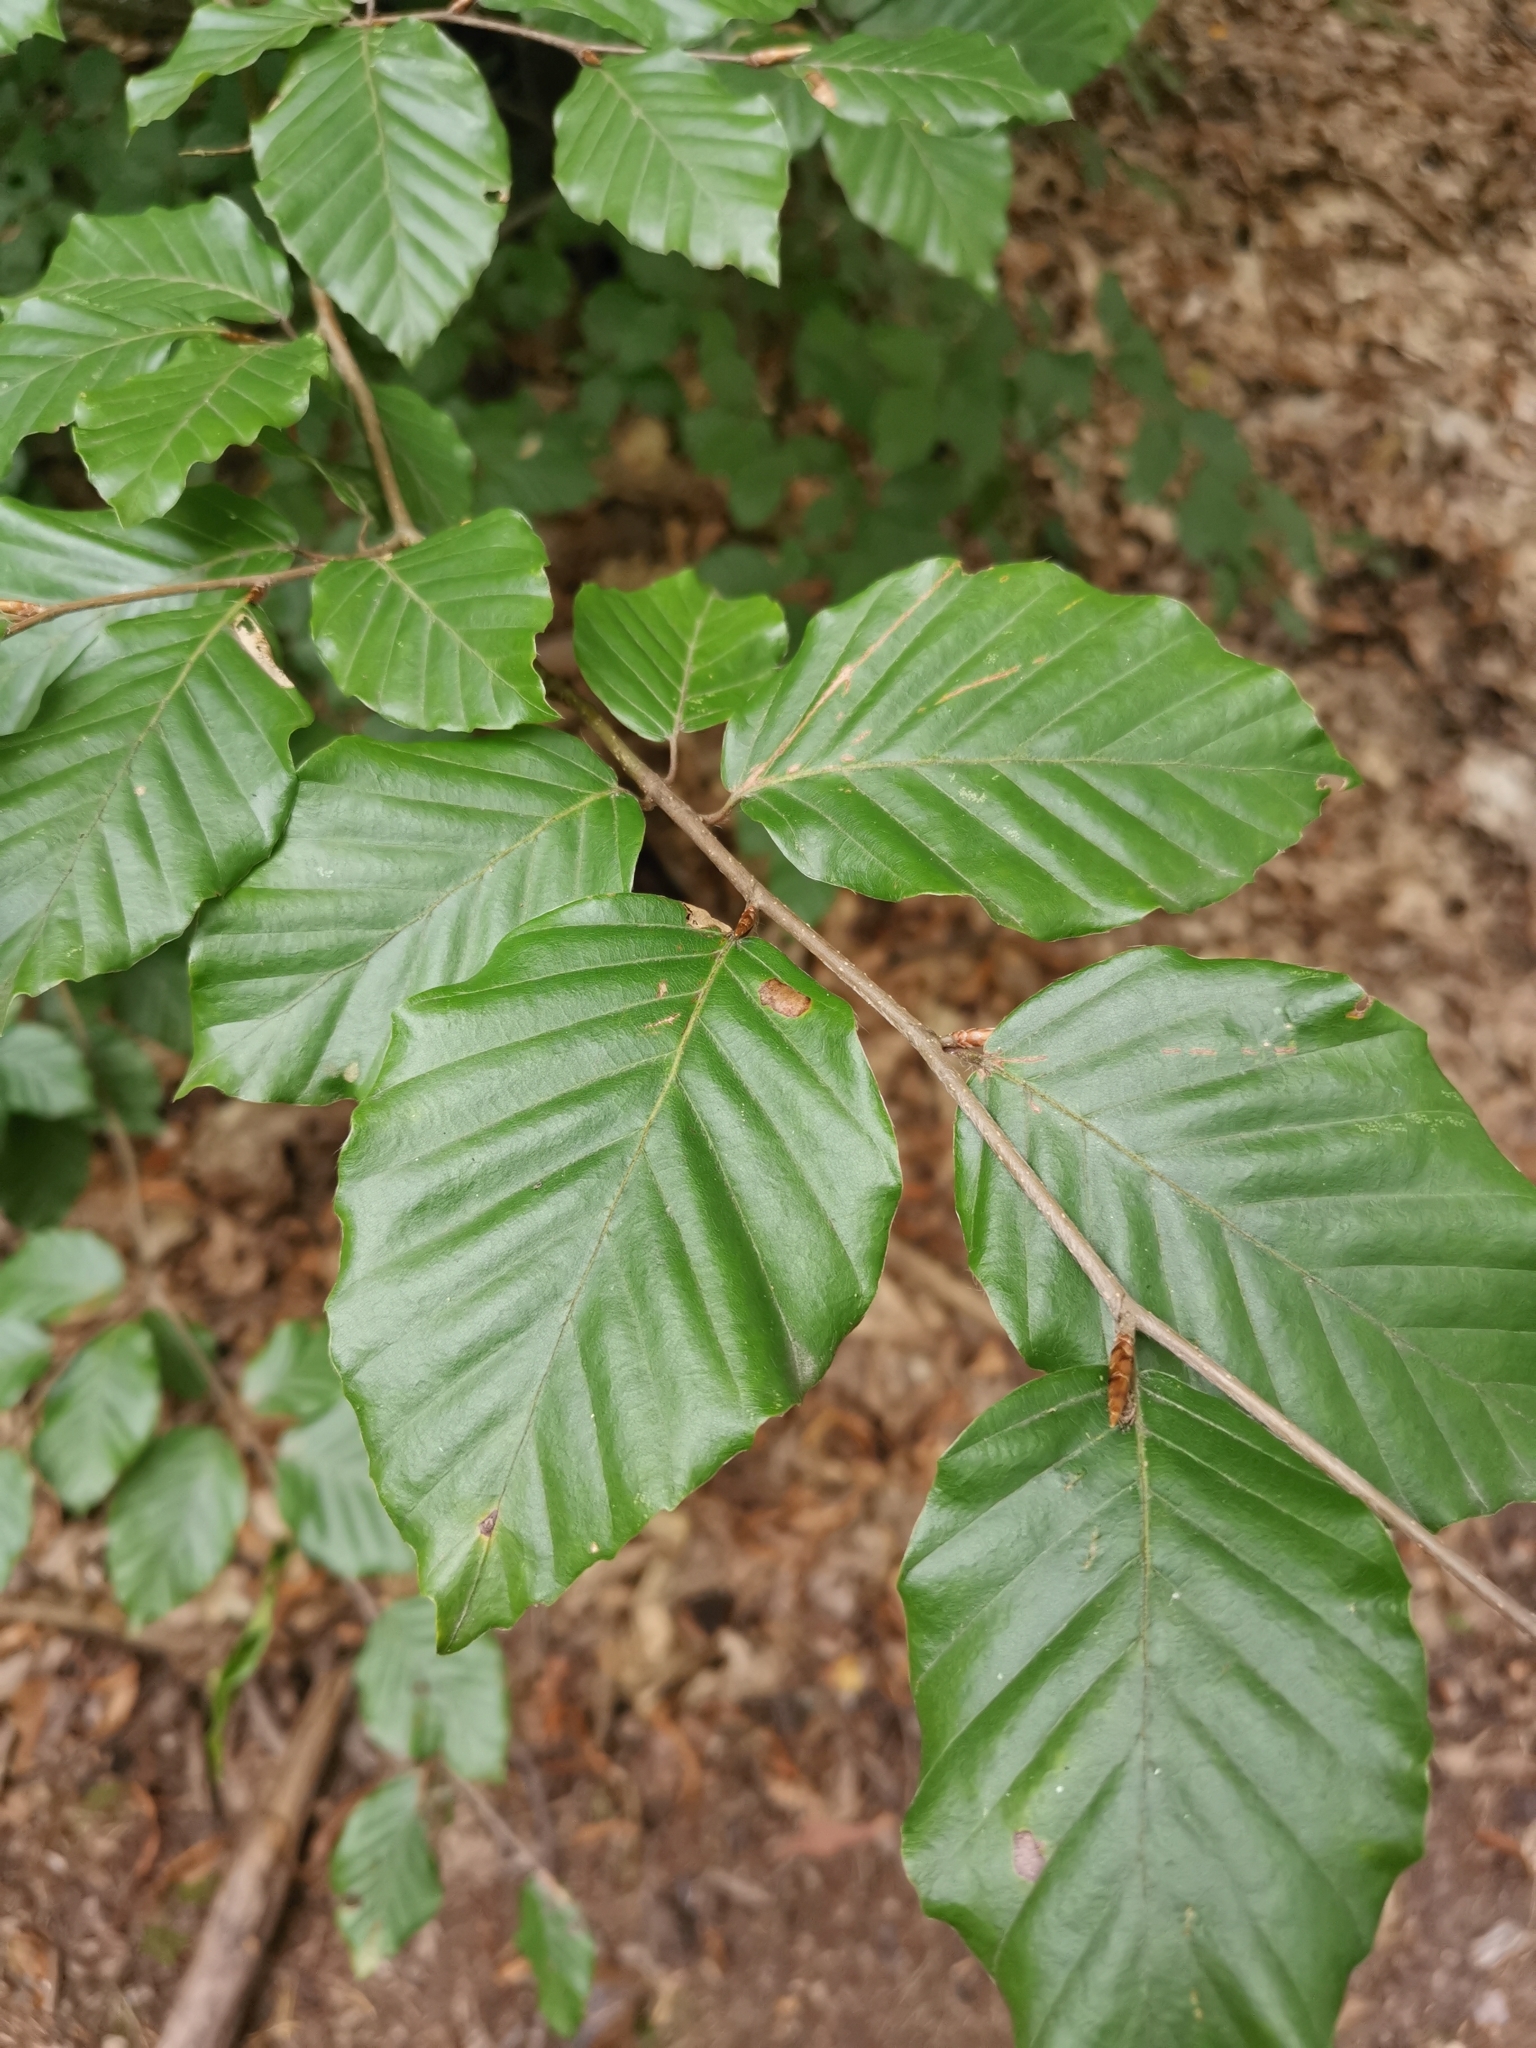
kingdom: Plantae
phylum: Tracheophyta
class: Magnoliopsida
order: Fagales
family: Fagaceae
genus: Fagus
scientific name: Fagus sylvatica
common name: Beech
